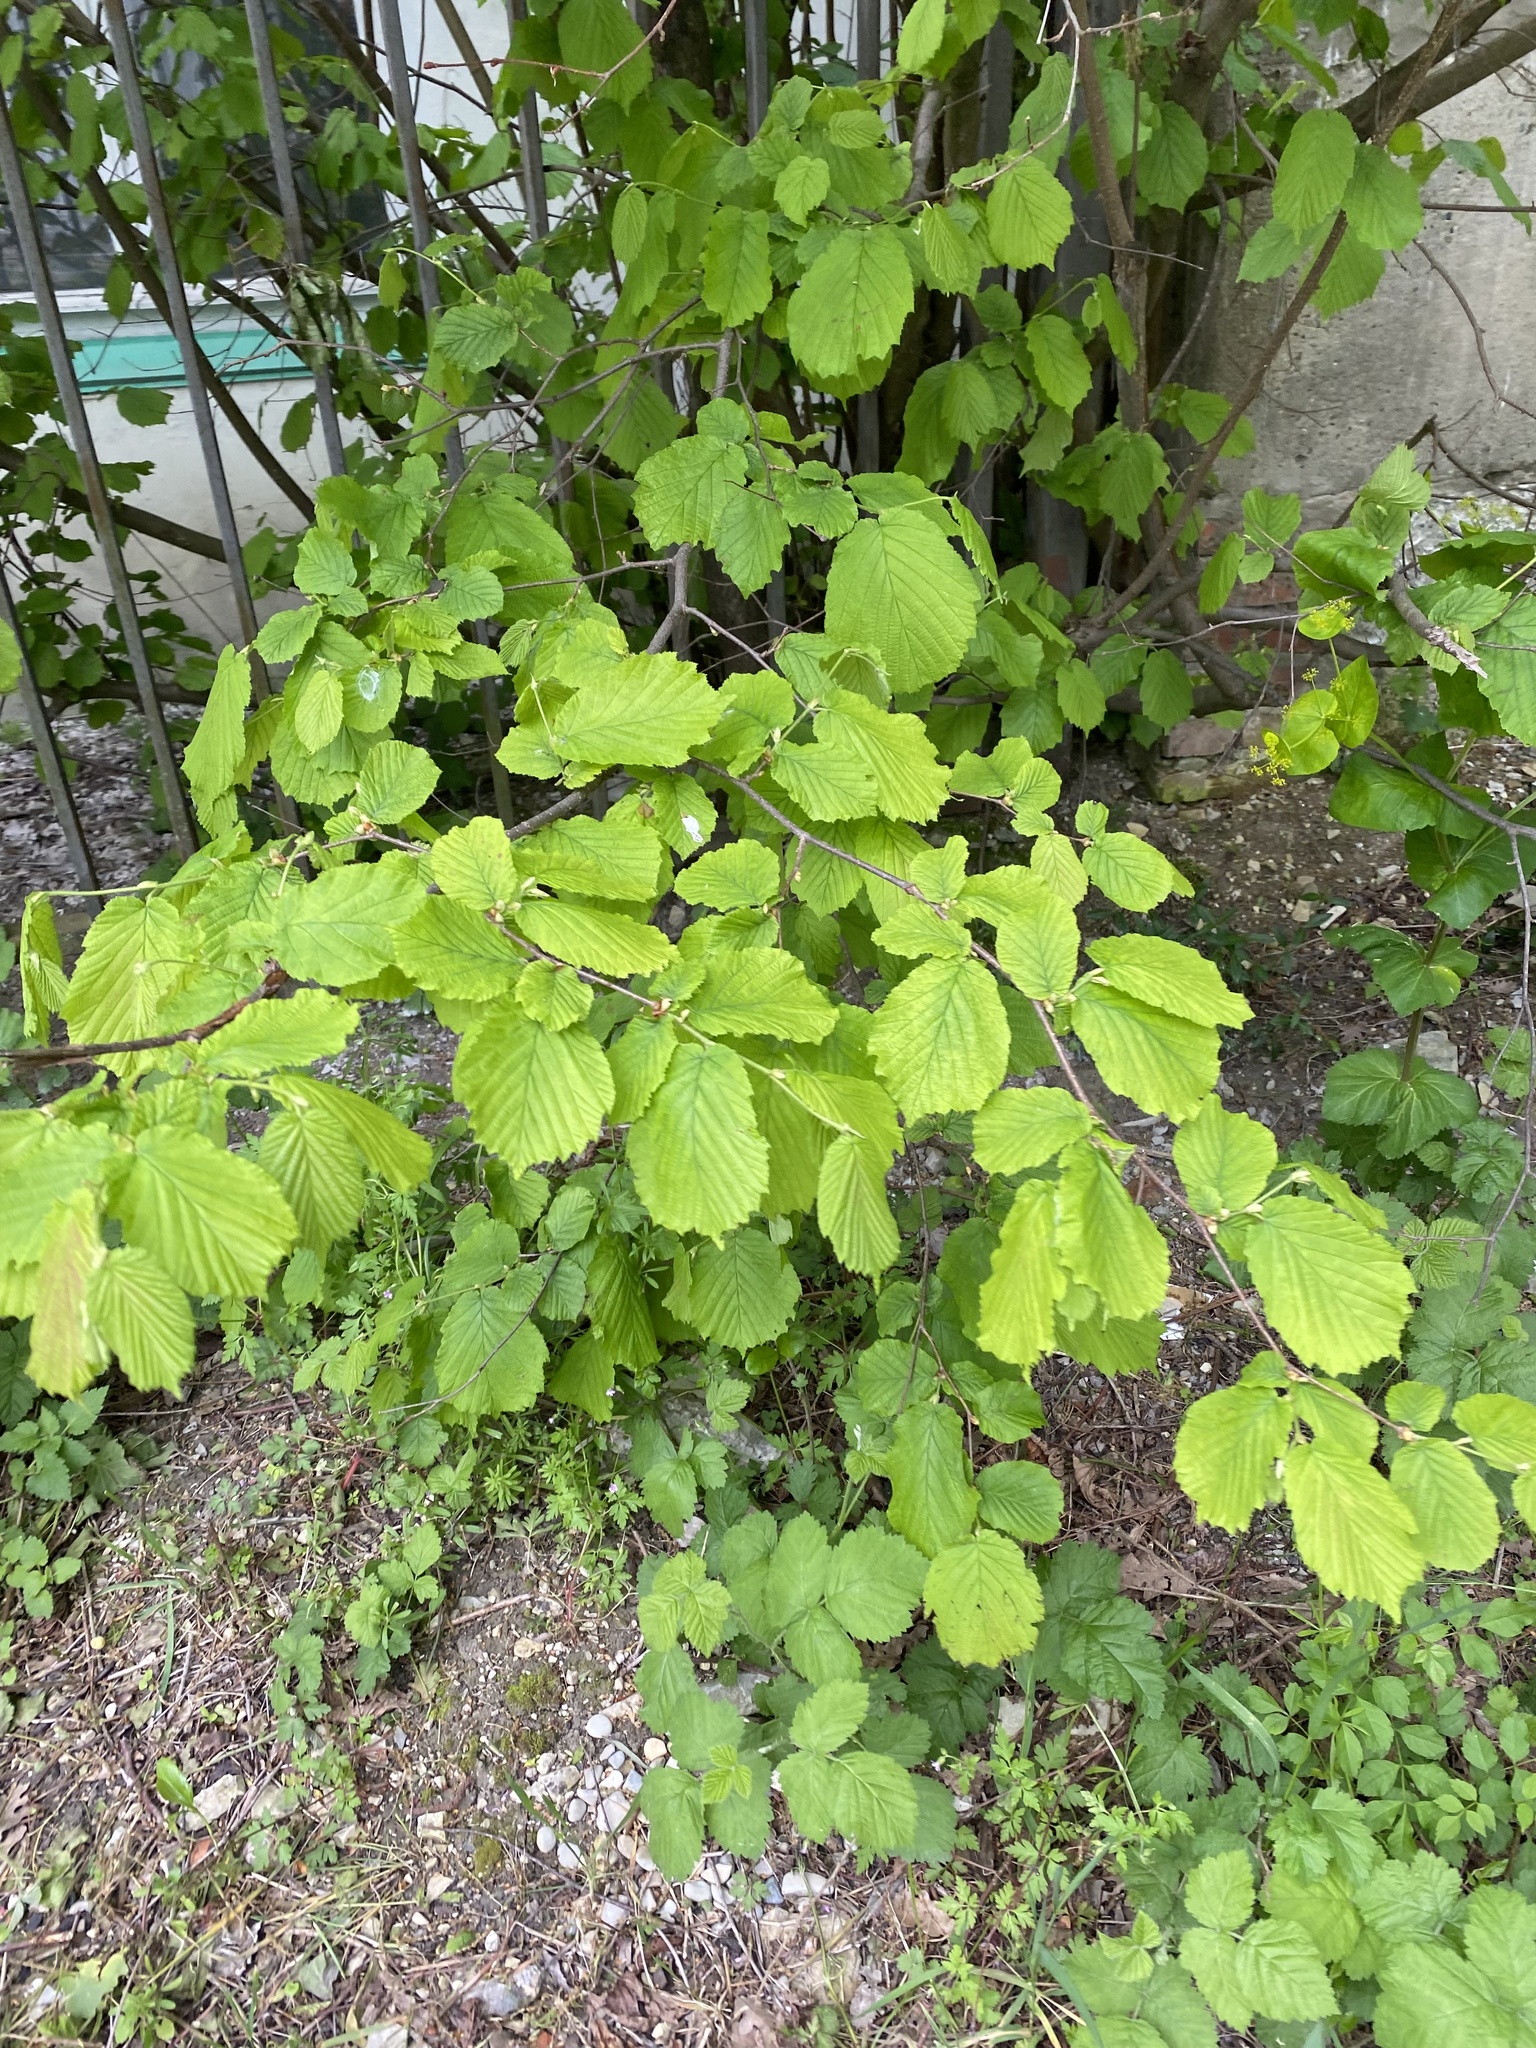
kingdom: Plantae
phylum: Tracheophyta
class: Magnoliopsida
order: Fagales
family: Betulaceae
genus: Corylus
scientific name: Corylus avellana
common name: European hazel
